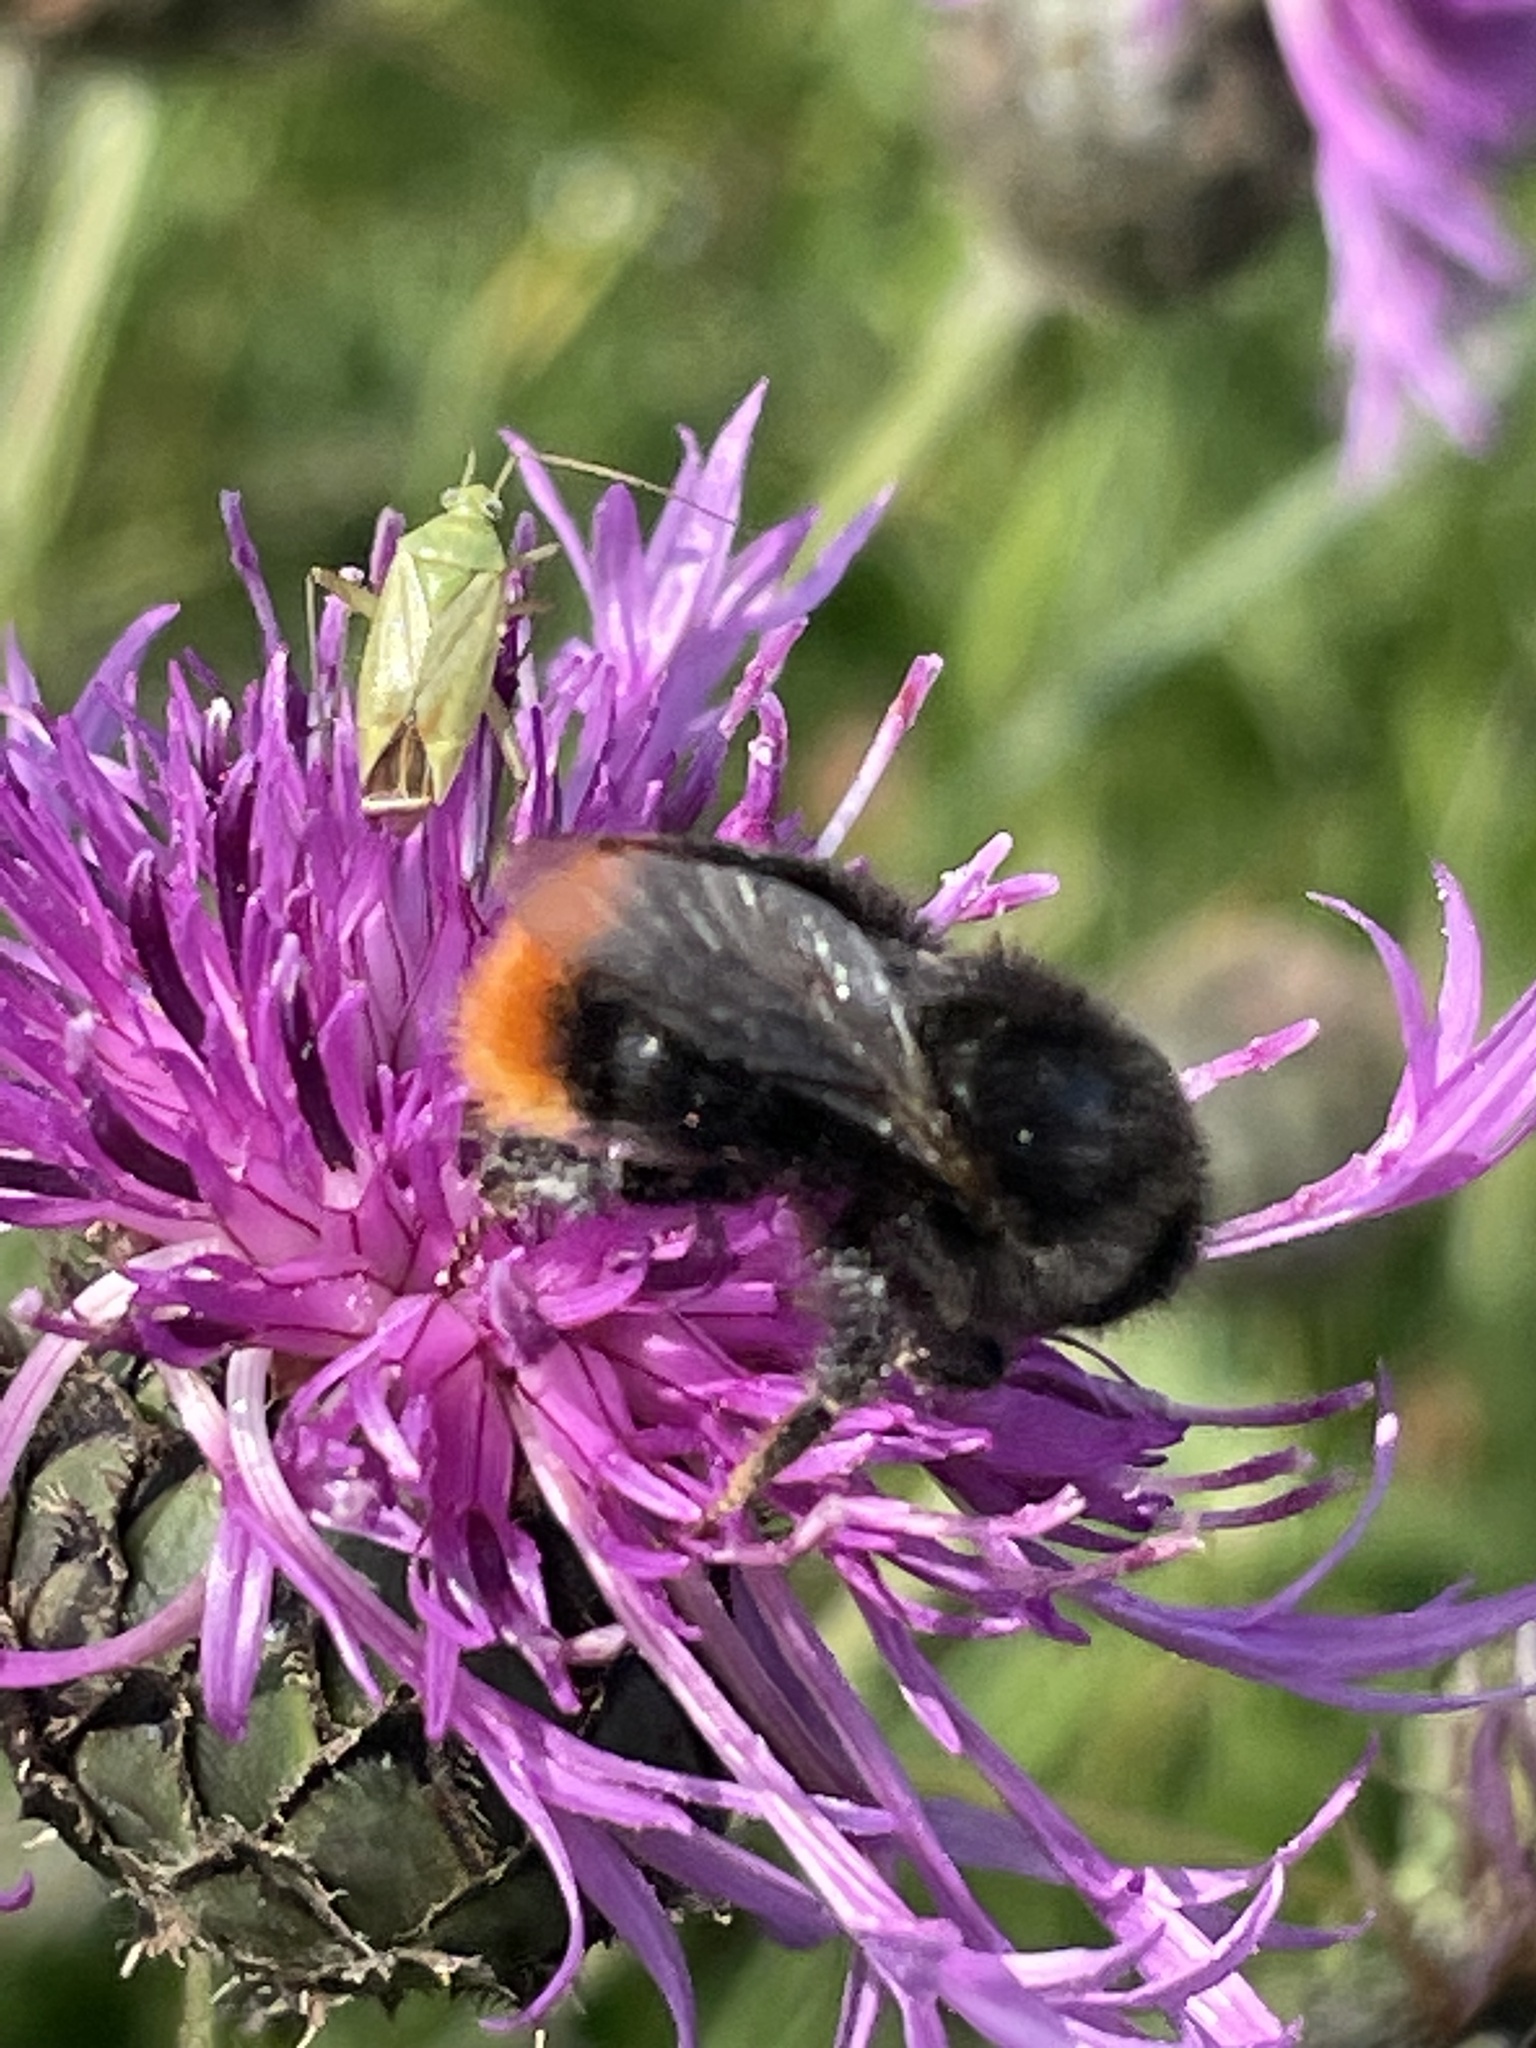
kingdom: Animalia
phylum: Arthropoda
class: Insecta
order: Hymenoptera
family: Apidae
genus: Bombus
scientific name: Bombus lapidarius
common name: Large red-tailed humble-bee
